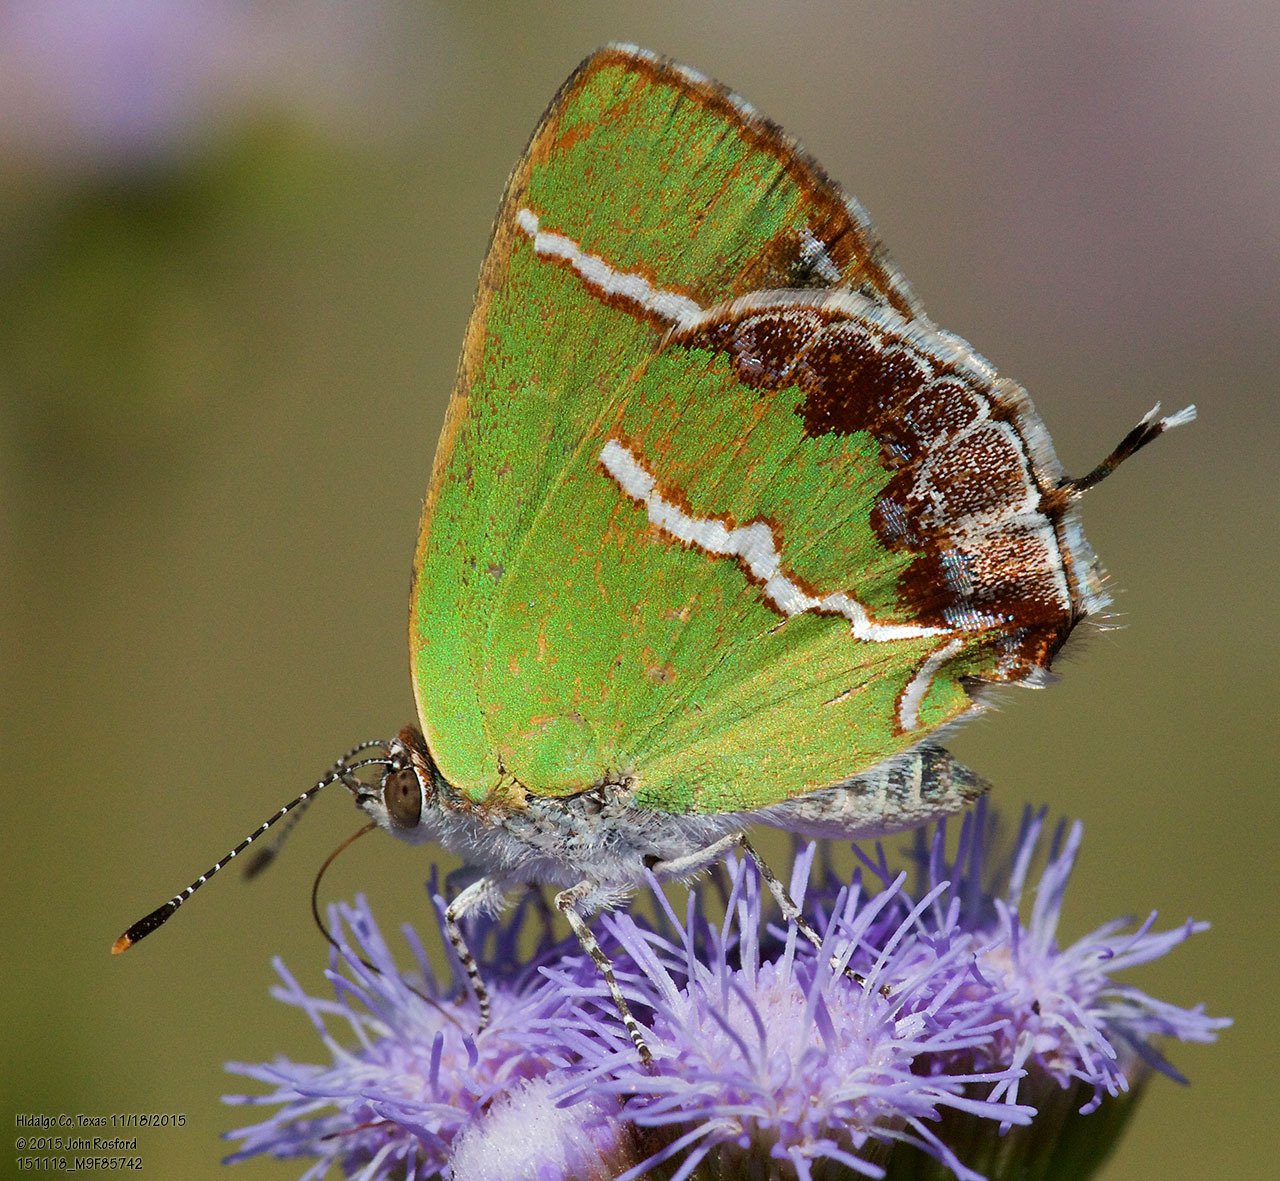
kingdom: Animalia
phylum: Arthropoda
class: Insecta
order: Lepidoptera
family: Lycaenidae
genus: Chlorostrymon
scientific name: Chlorostrymon simaethis
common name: Silver-banded hairstreak
